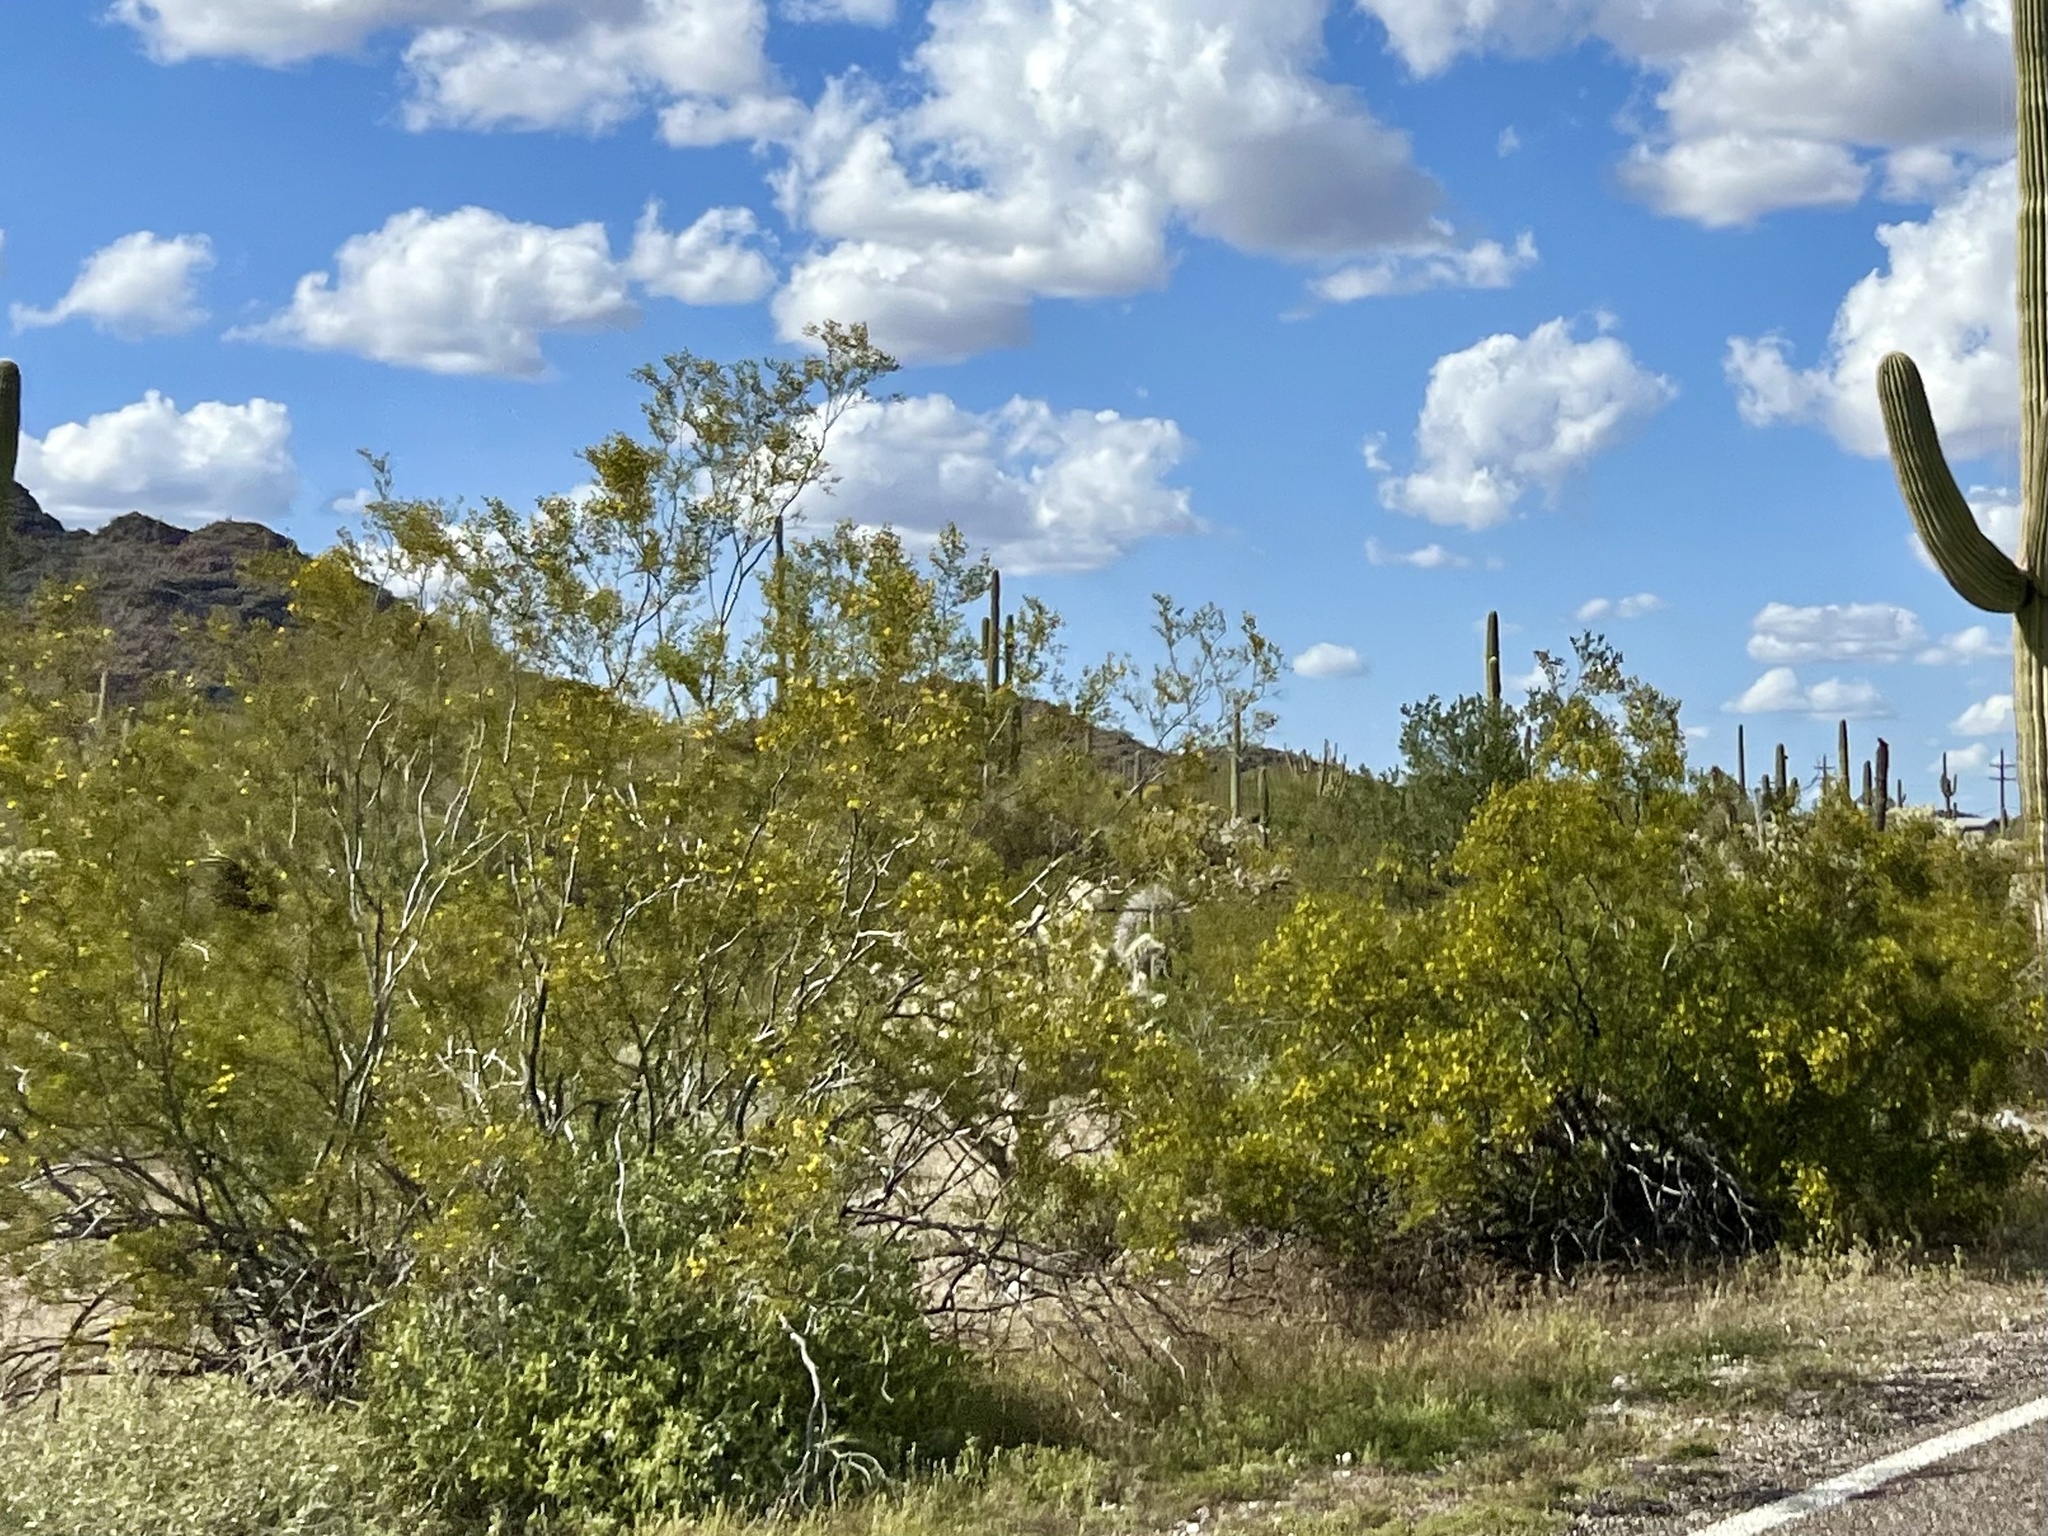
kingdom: Plantae
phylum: Tracheophyta
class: Magnoliopsida
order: Zygophyllales
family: Zygophyllaceae
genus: Larrea
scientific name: Larrea tridentata
